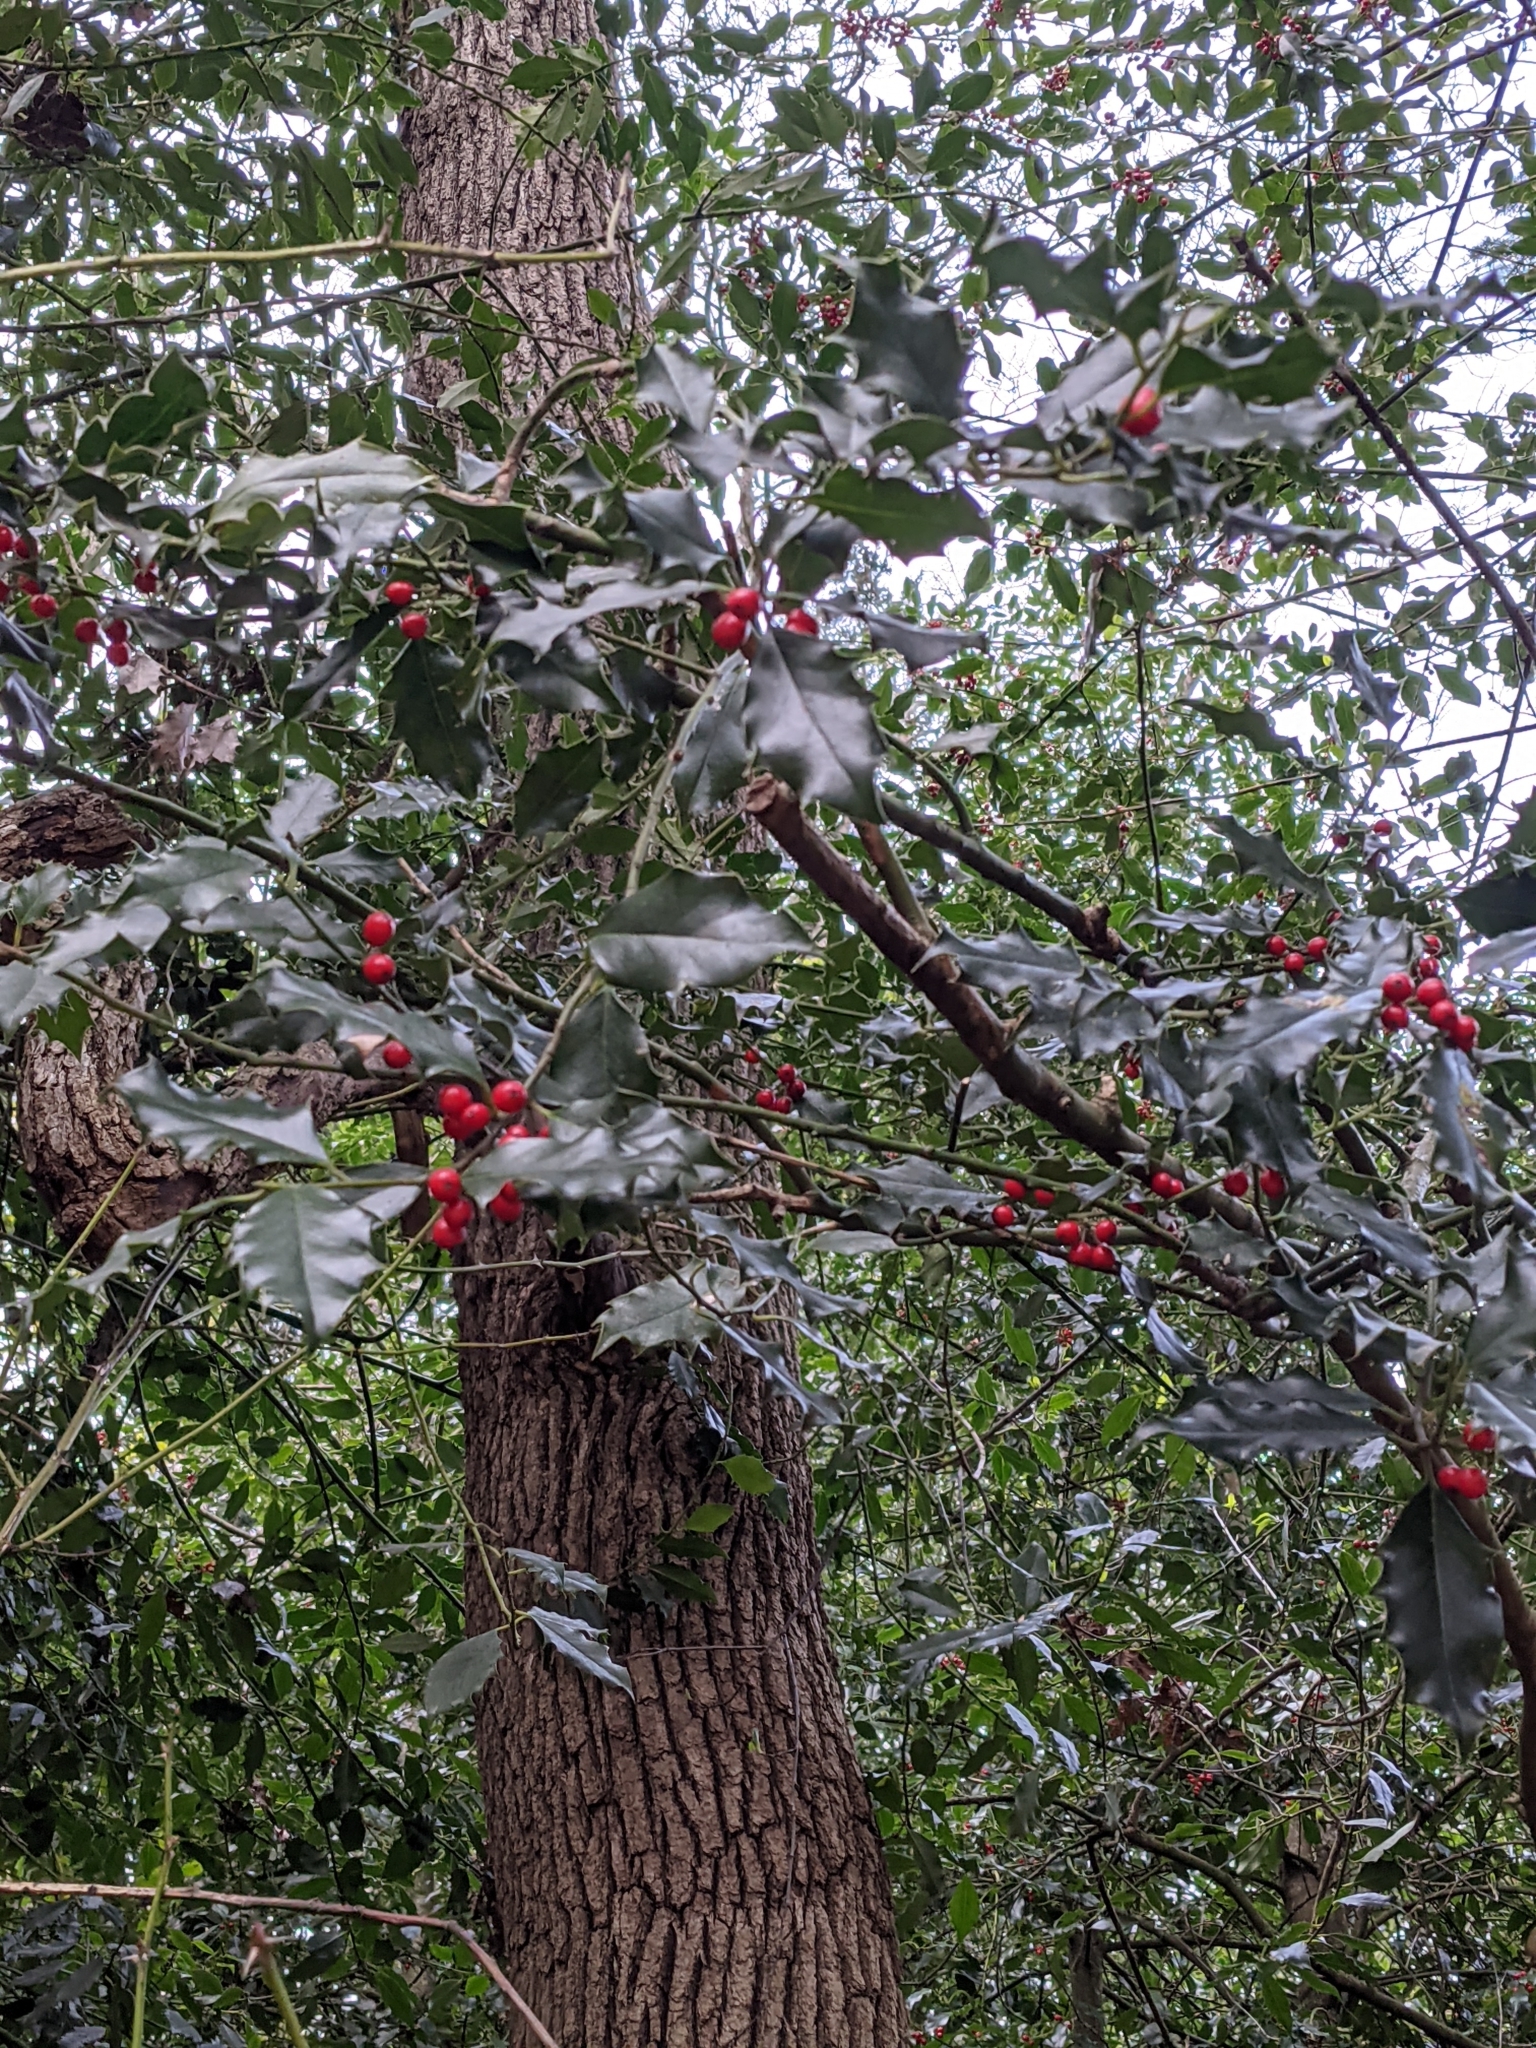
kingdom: Plantae
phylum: Tracheophyta
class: Magnoliopsida
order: Aquifoliales
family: Aquifoliaceae
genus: Ilex
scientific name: Ilex aquifolium
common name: English holly
